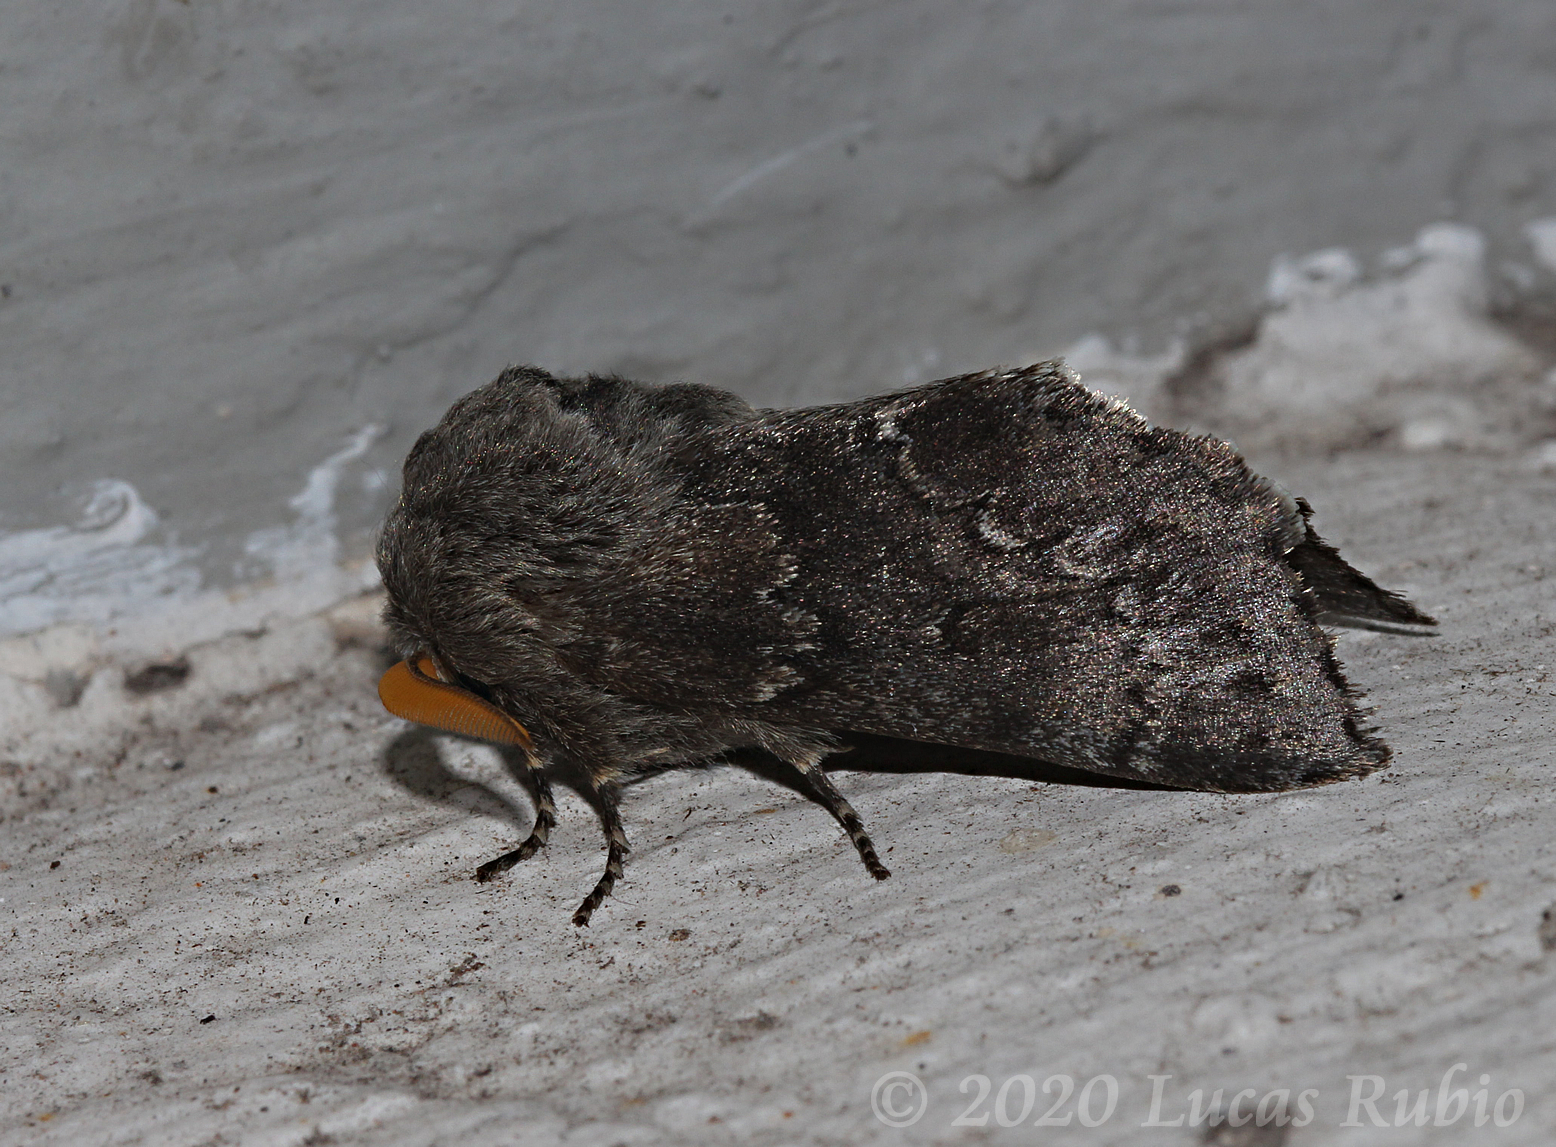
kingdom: Animalia
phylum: Arthropoda
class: Insecta
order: Lepidoptera
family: Notodontidae
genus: Neobourquinia
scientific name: Neobourquinia bifasciata
